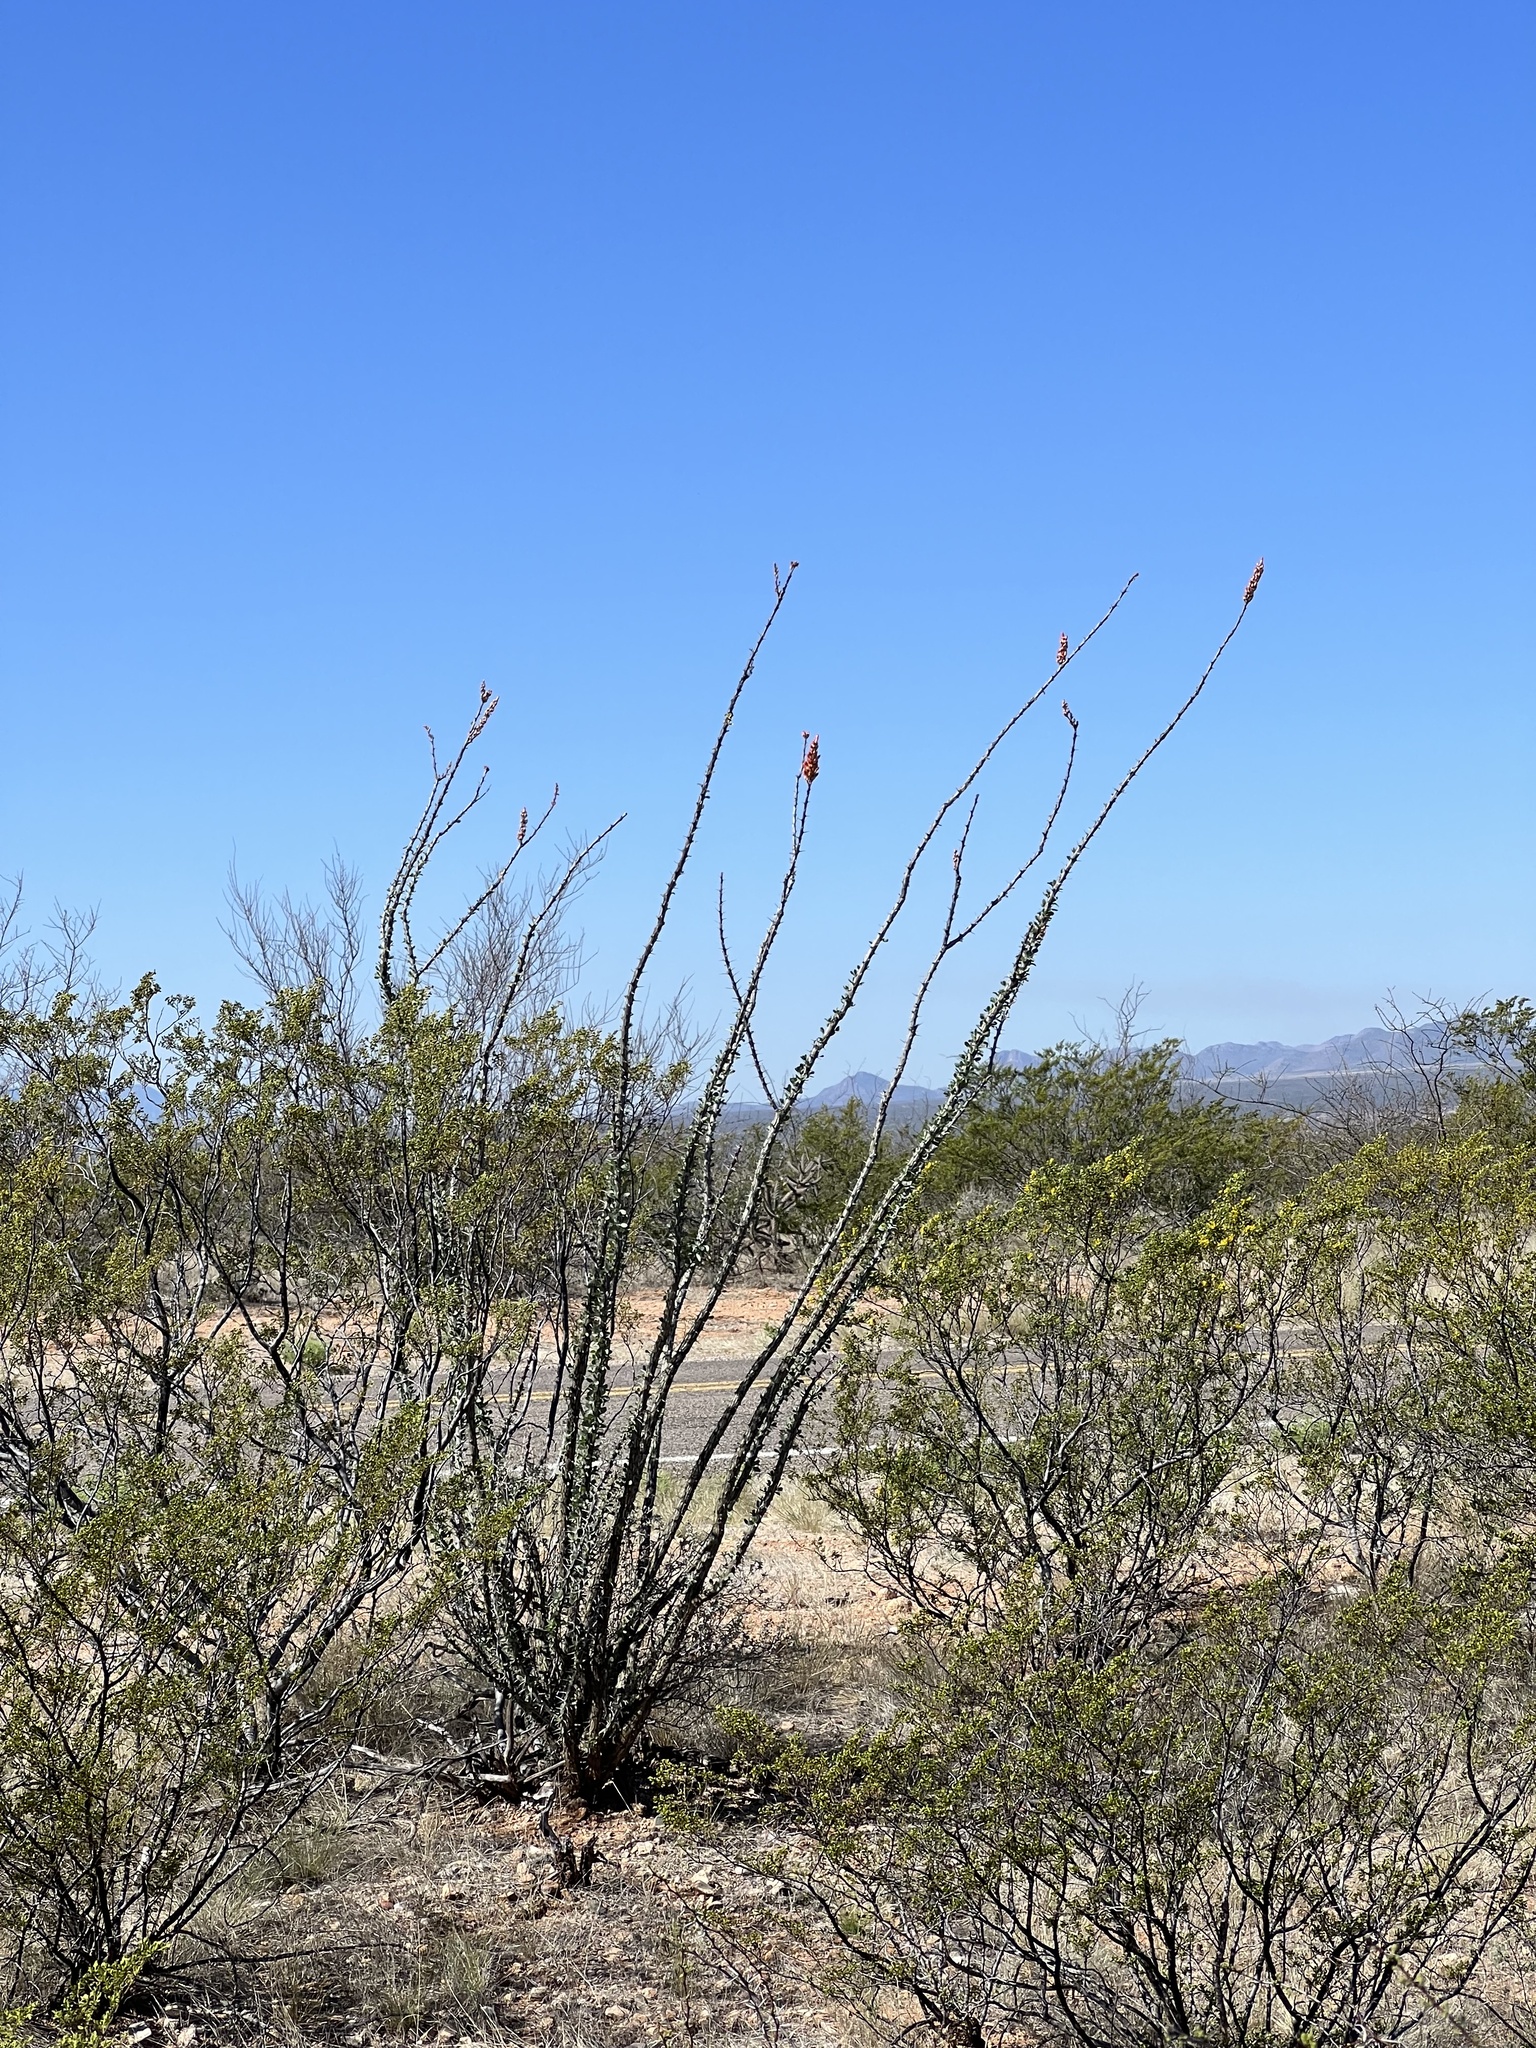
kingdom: Plantae
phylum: Tracheophyta
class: Magnoliopsida
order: Ericales
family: Fouquieriaceae
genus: Fouquieria
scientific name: Fouquieria splendens
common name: Vine-cactus
